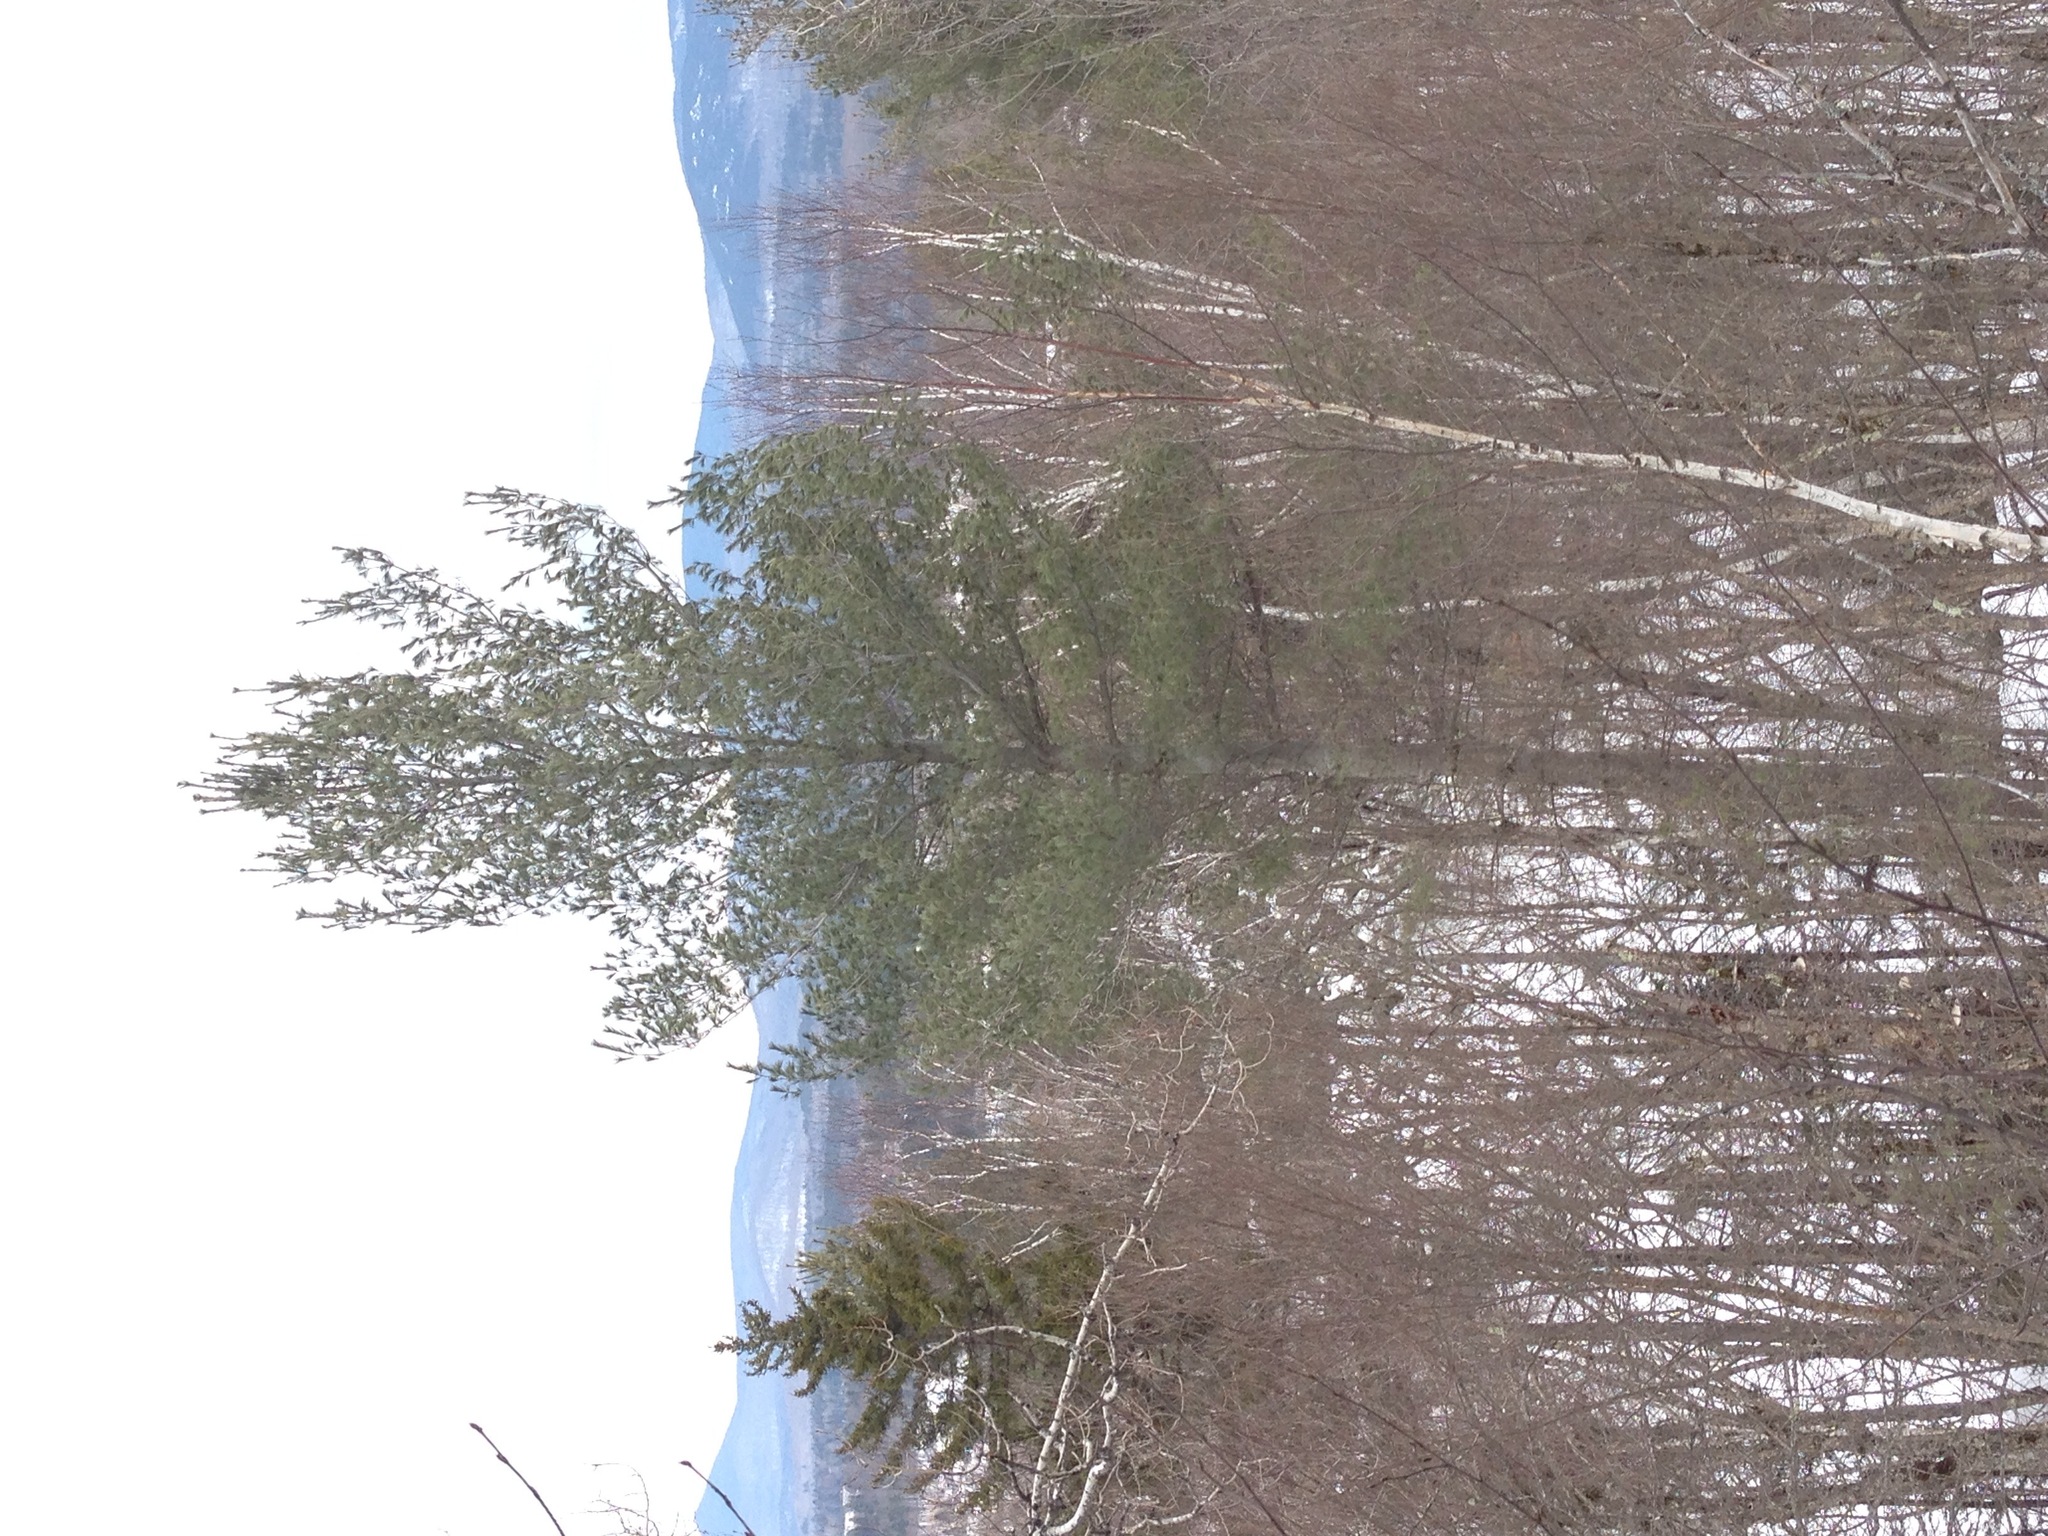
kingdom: Plantae
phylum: Tracheophyta
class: Pinopsida
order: Pinales
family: Pinaceae
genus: Pinus
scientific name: Pinus strobus
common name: Weymouth pine
